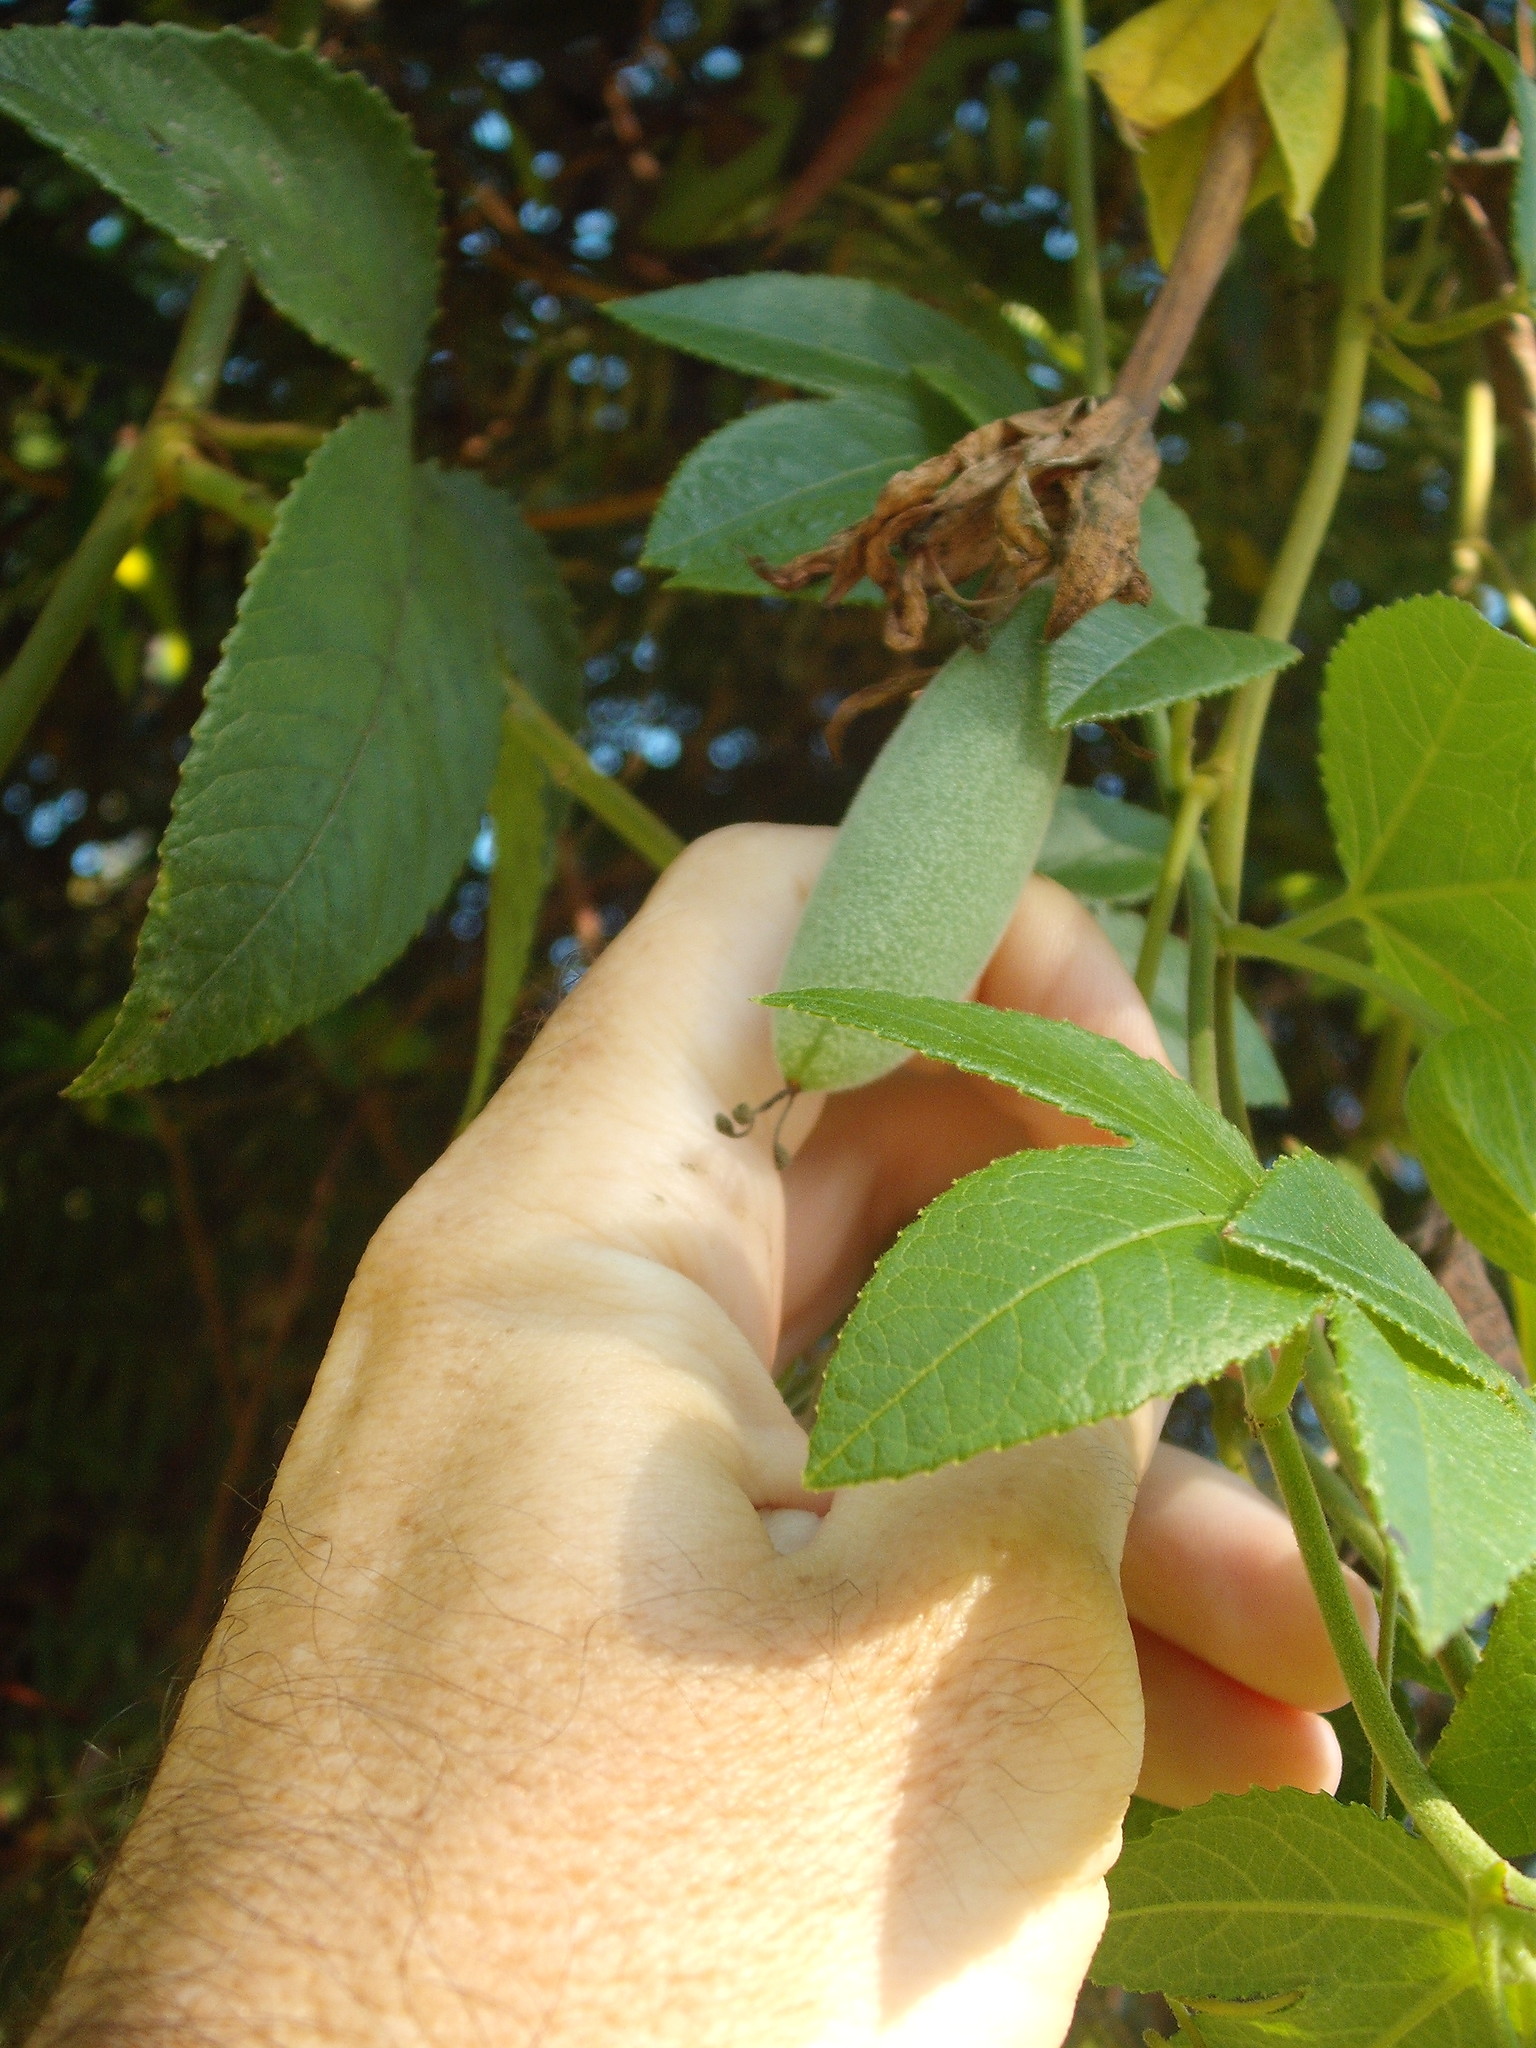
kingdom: Plantae
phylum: Tracheophyta
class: Magnoliopsida
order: Malpighiales
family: Passifloraceae
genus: Passiflora
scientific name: Passiflora tarminiana
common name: Banana poka
